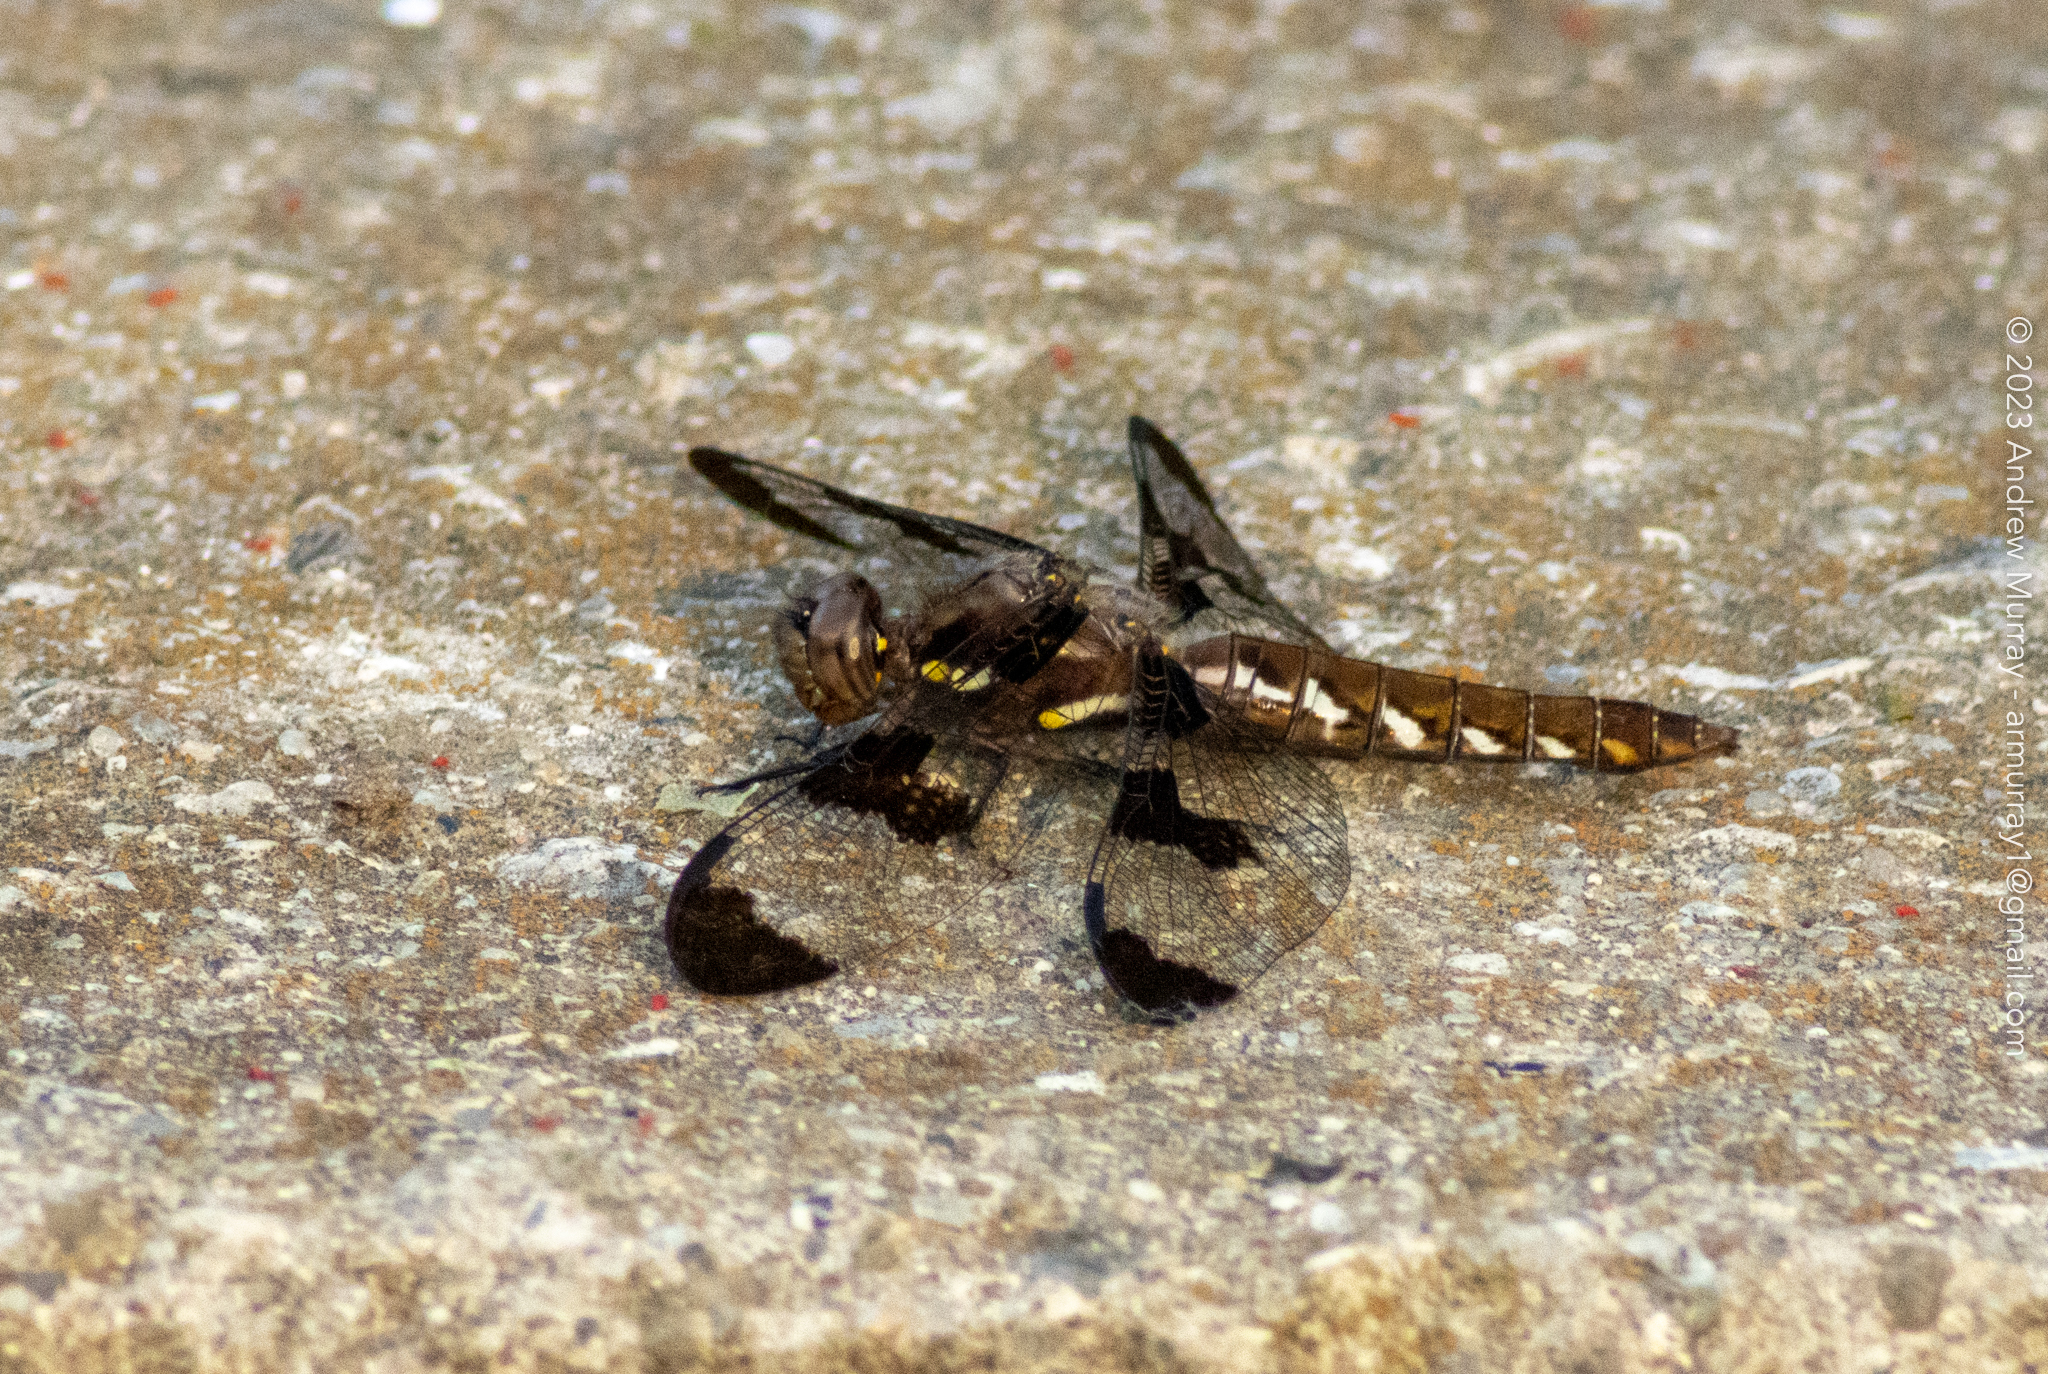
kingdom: Animalia
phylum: Arthropoda
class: Insecta
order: Odonata
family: Libellulidae
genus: Plathemis
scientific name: Plathemis lydia
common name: Common whitetail
